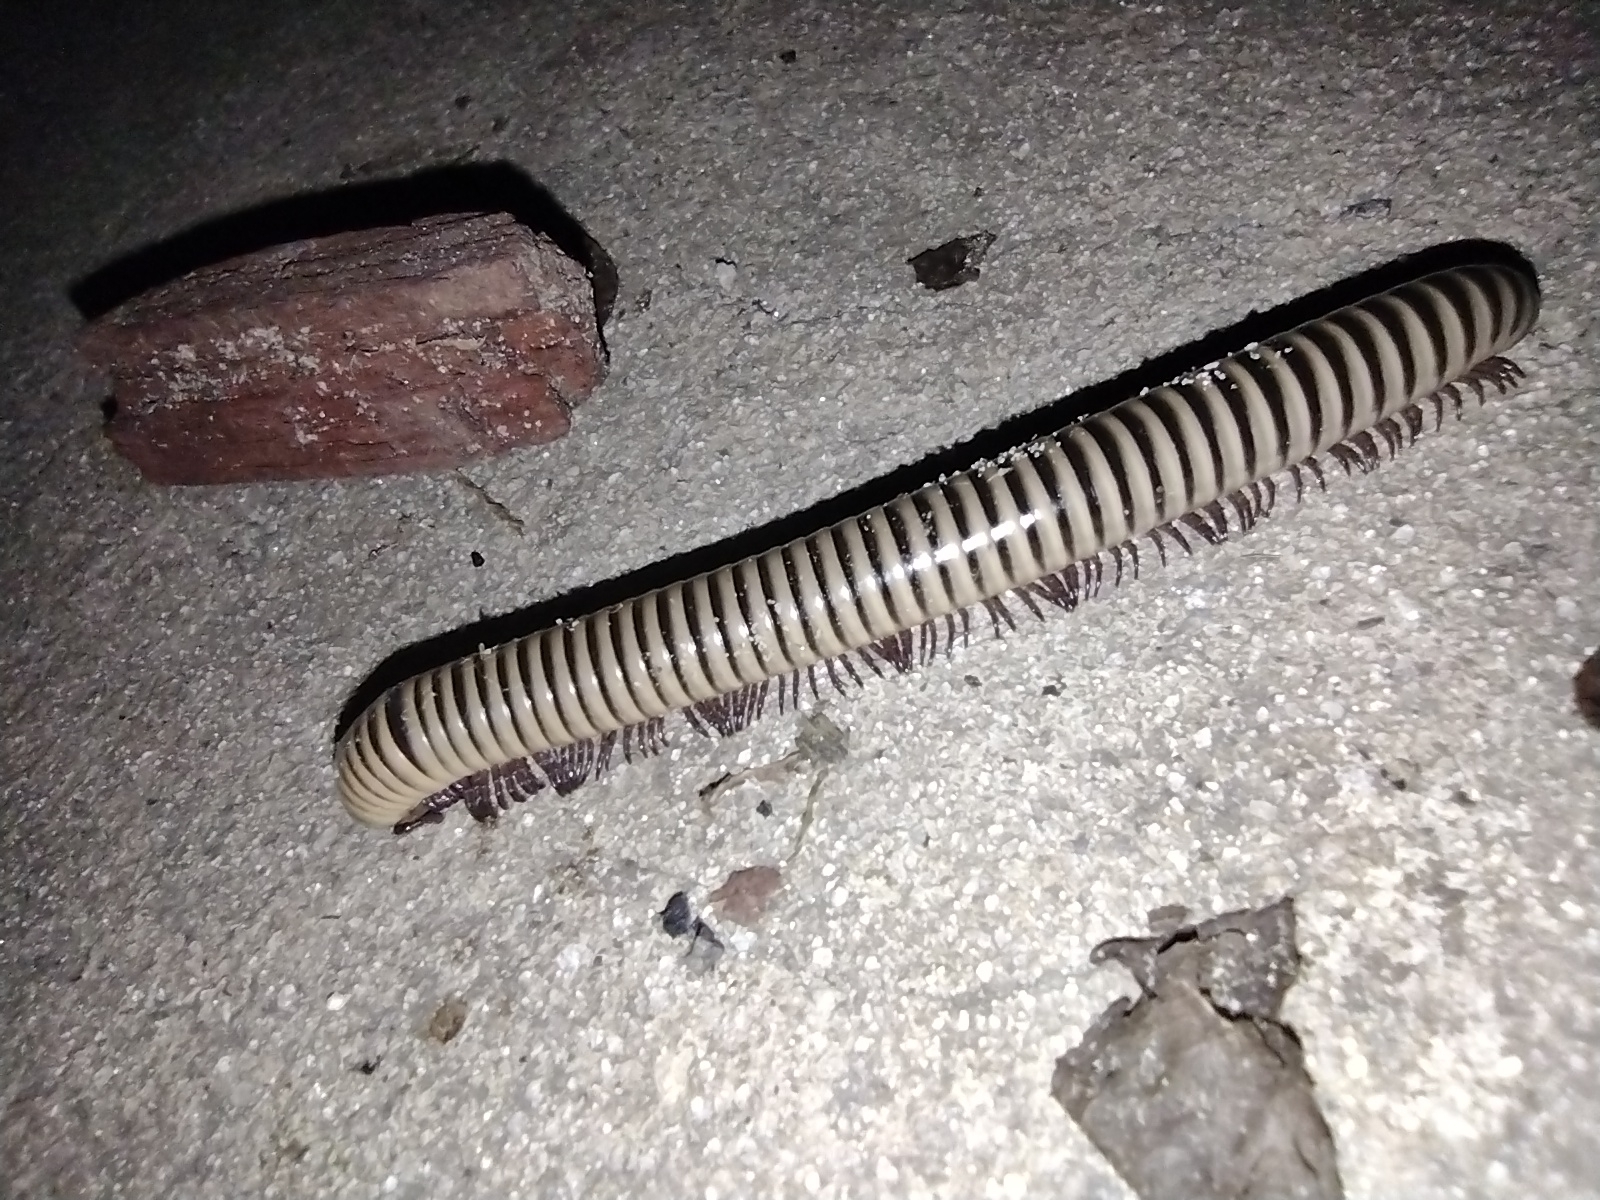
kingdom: Animalia
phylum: Arthropoda
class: Diplopoda
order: Spirobolida
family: Spirobolidae
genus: Chicobolus
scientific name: Chicobolus spinigerus
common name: Florida ivory millipede
